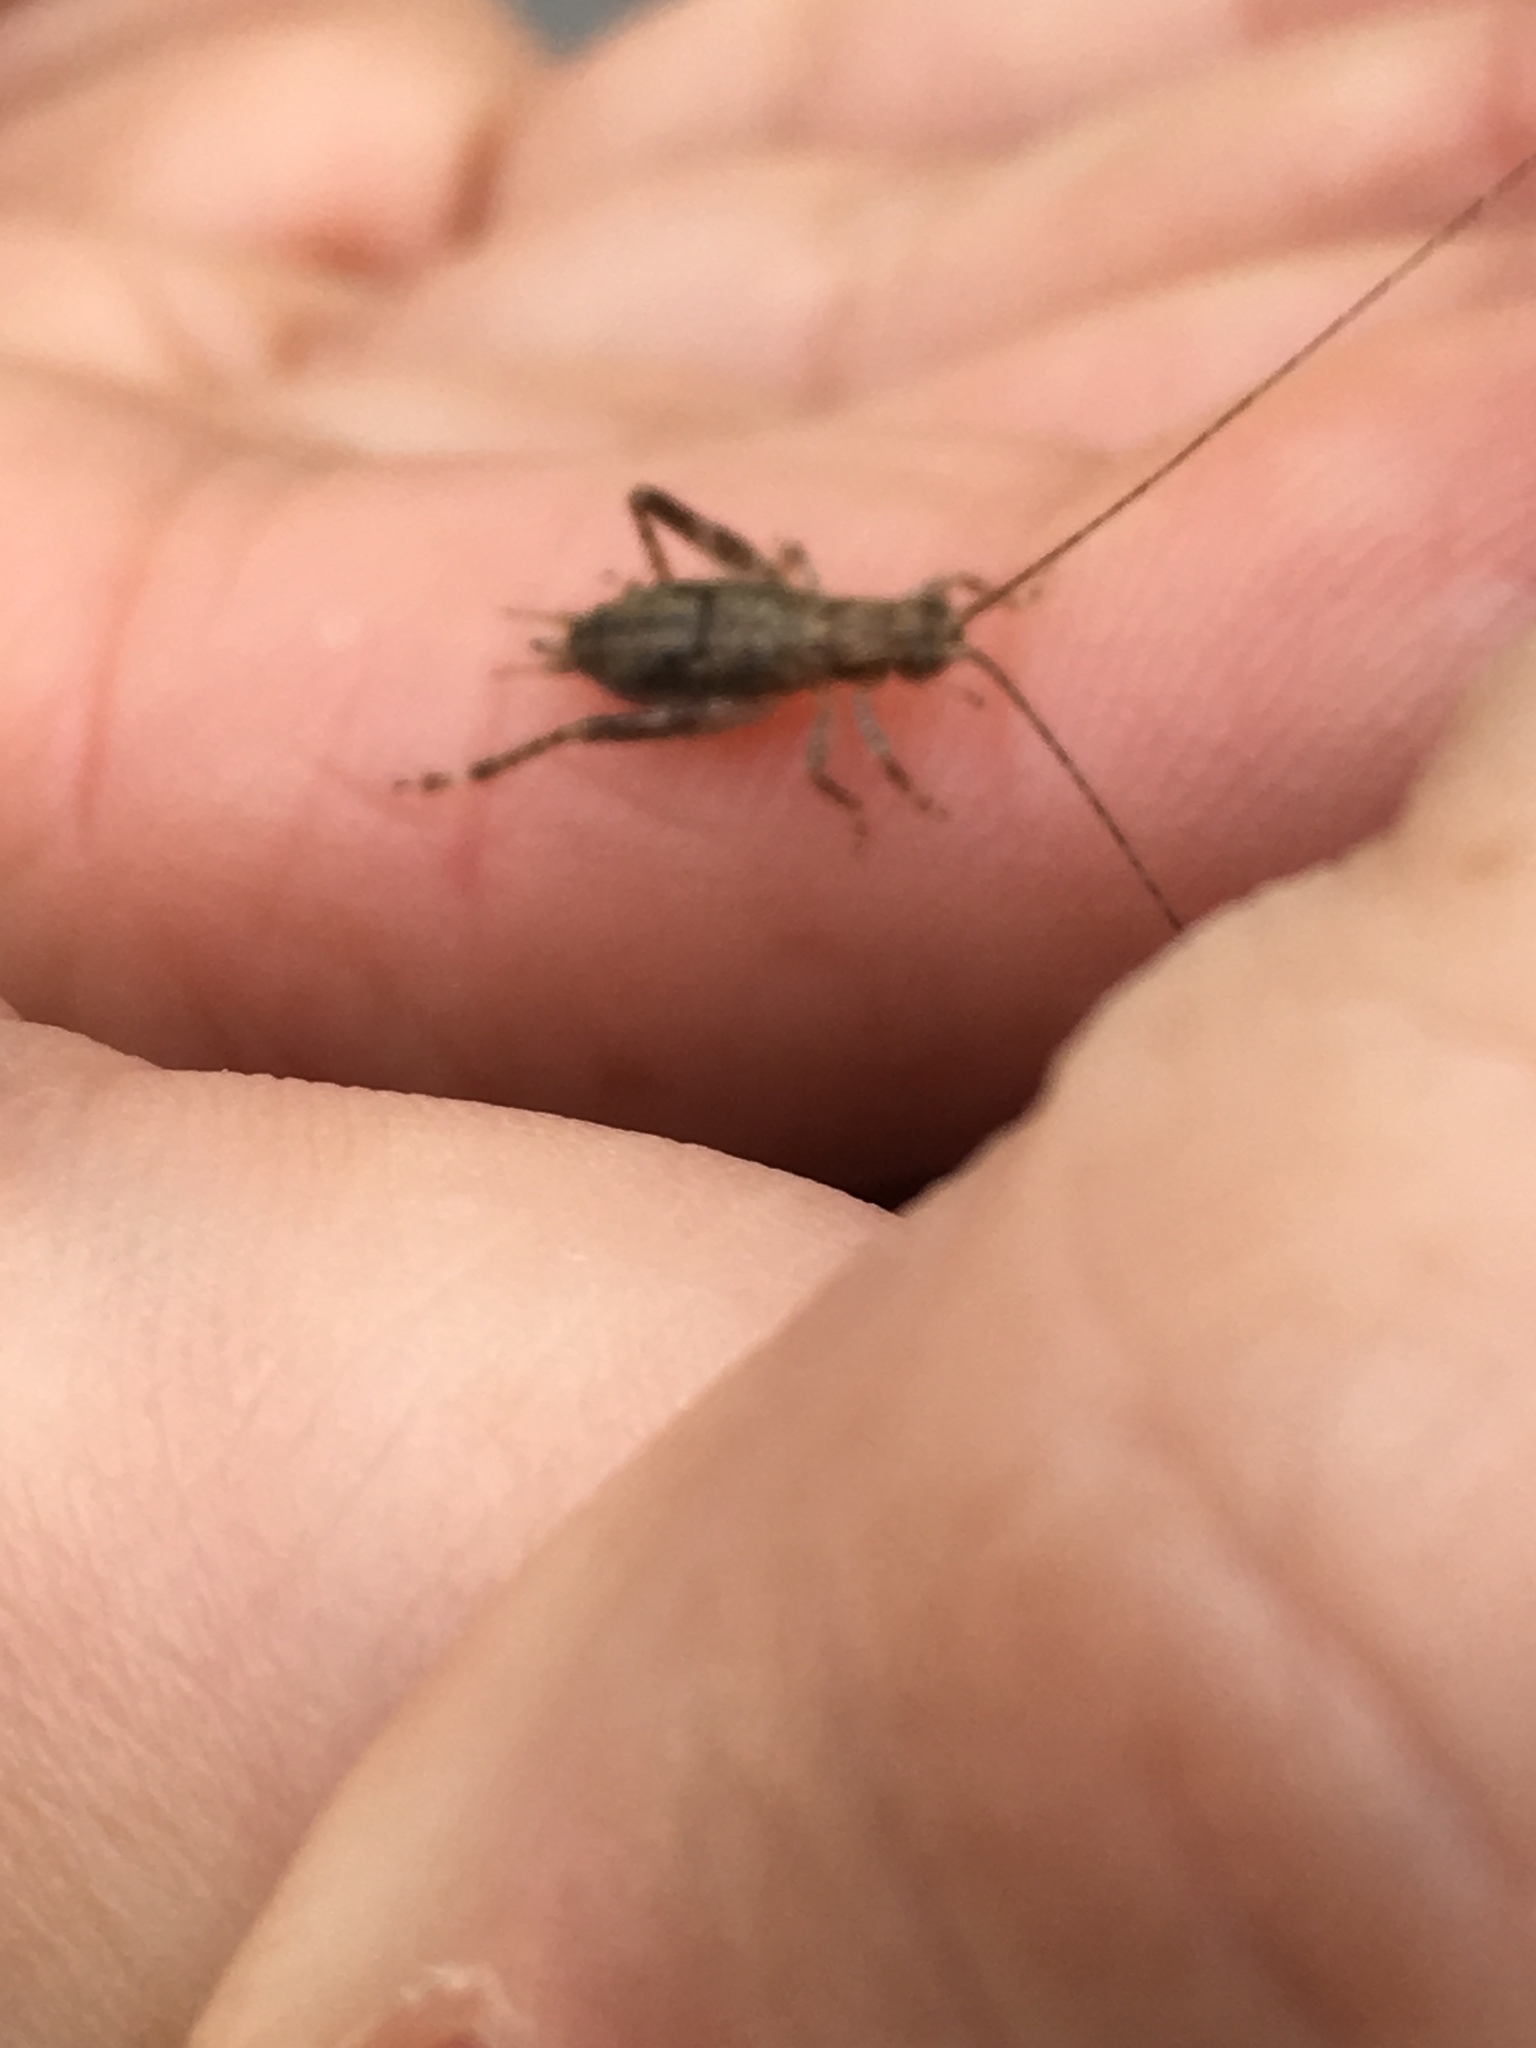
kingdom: Animalia
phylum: Arthropoda
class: Insecta
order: Orthoptera
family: Gryllidae
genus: Hapithus
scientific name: Hapithus saltator
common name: Jumping bush cricket
